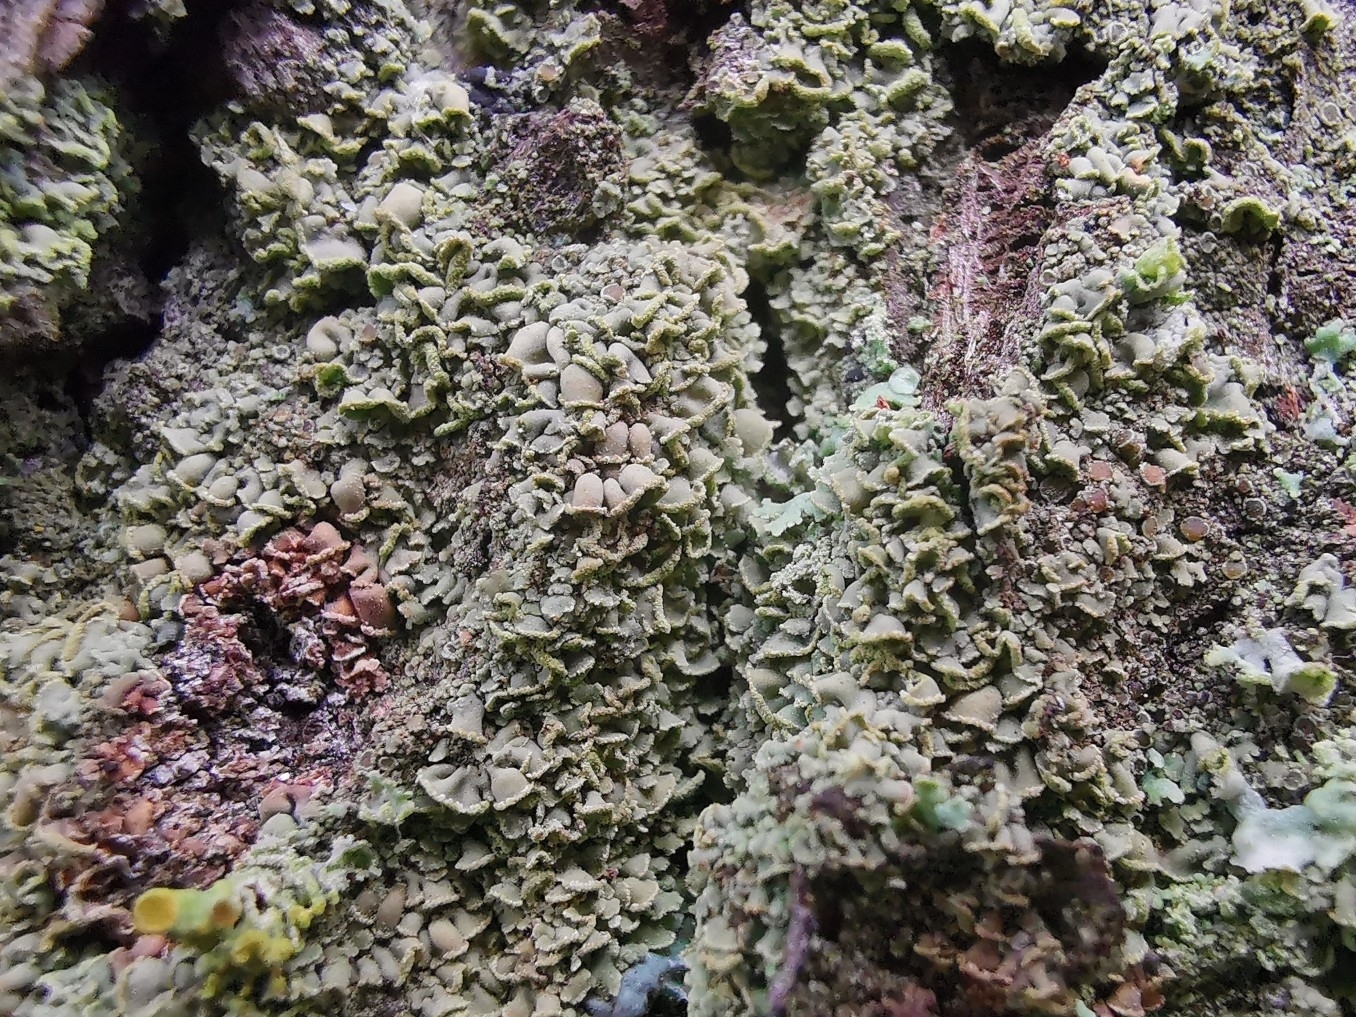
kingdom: Fungi
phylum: Ascomycota
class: Lecanoromycetes
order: Umbilicariales
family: Ophioparmaceae
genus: Hypocenomyce
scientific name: Hypocenomyce scalaris
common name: Common clam lichen
